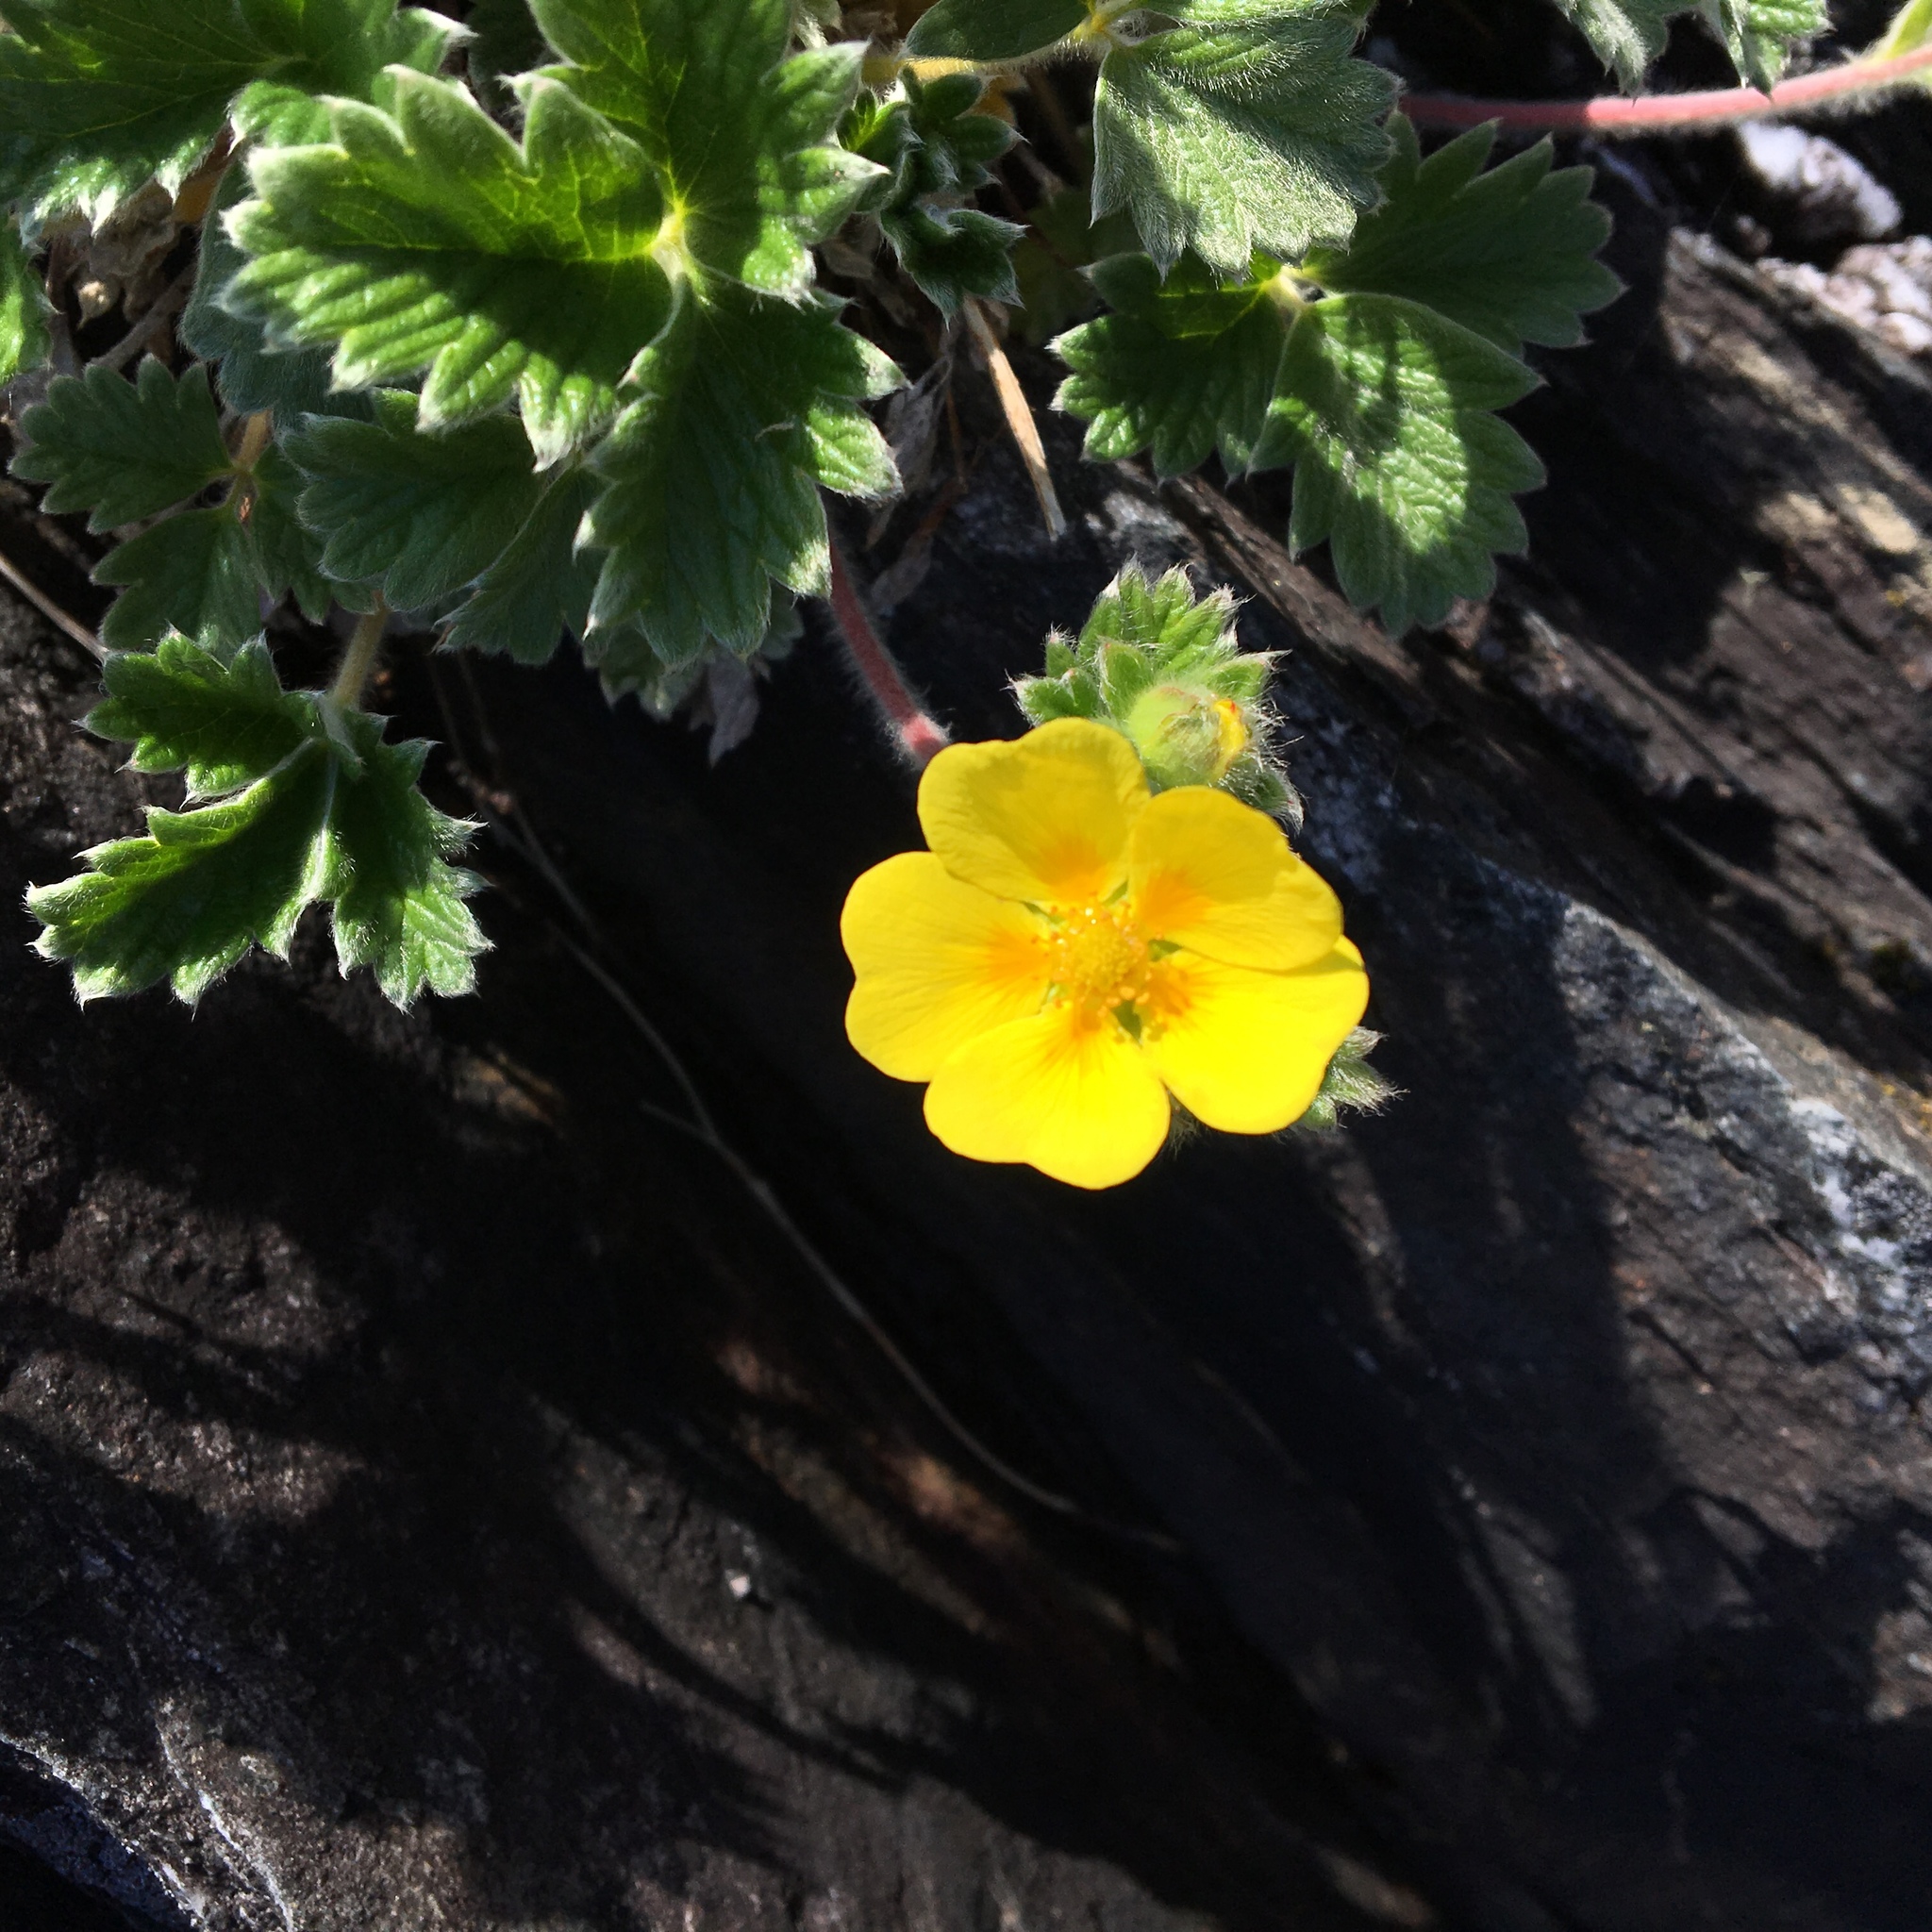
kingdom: Plantae
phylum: Tracheophyta
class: Magnoliopsida
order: Rosales
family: Rosaceae
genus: Potentilla
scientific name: Potentilla villosa
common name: Northern cinquefoil
